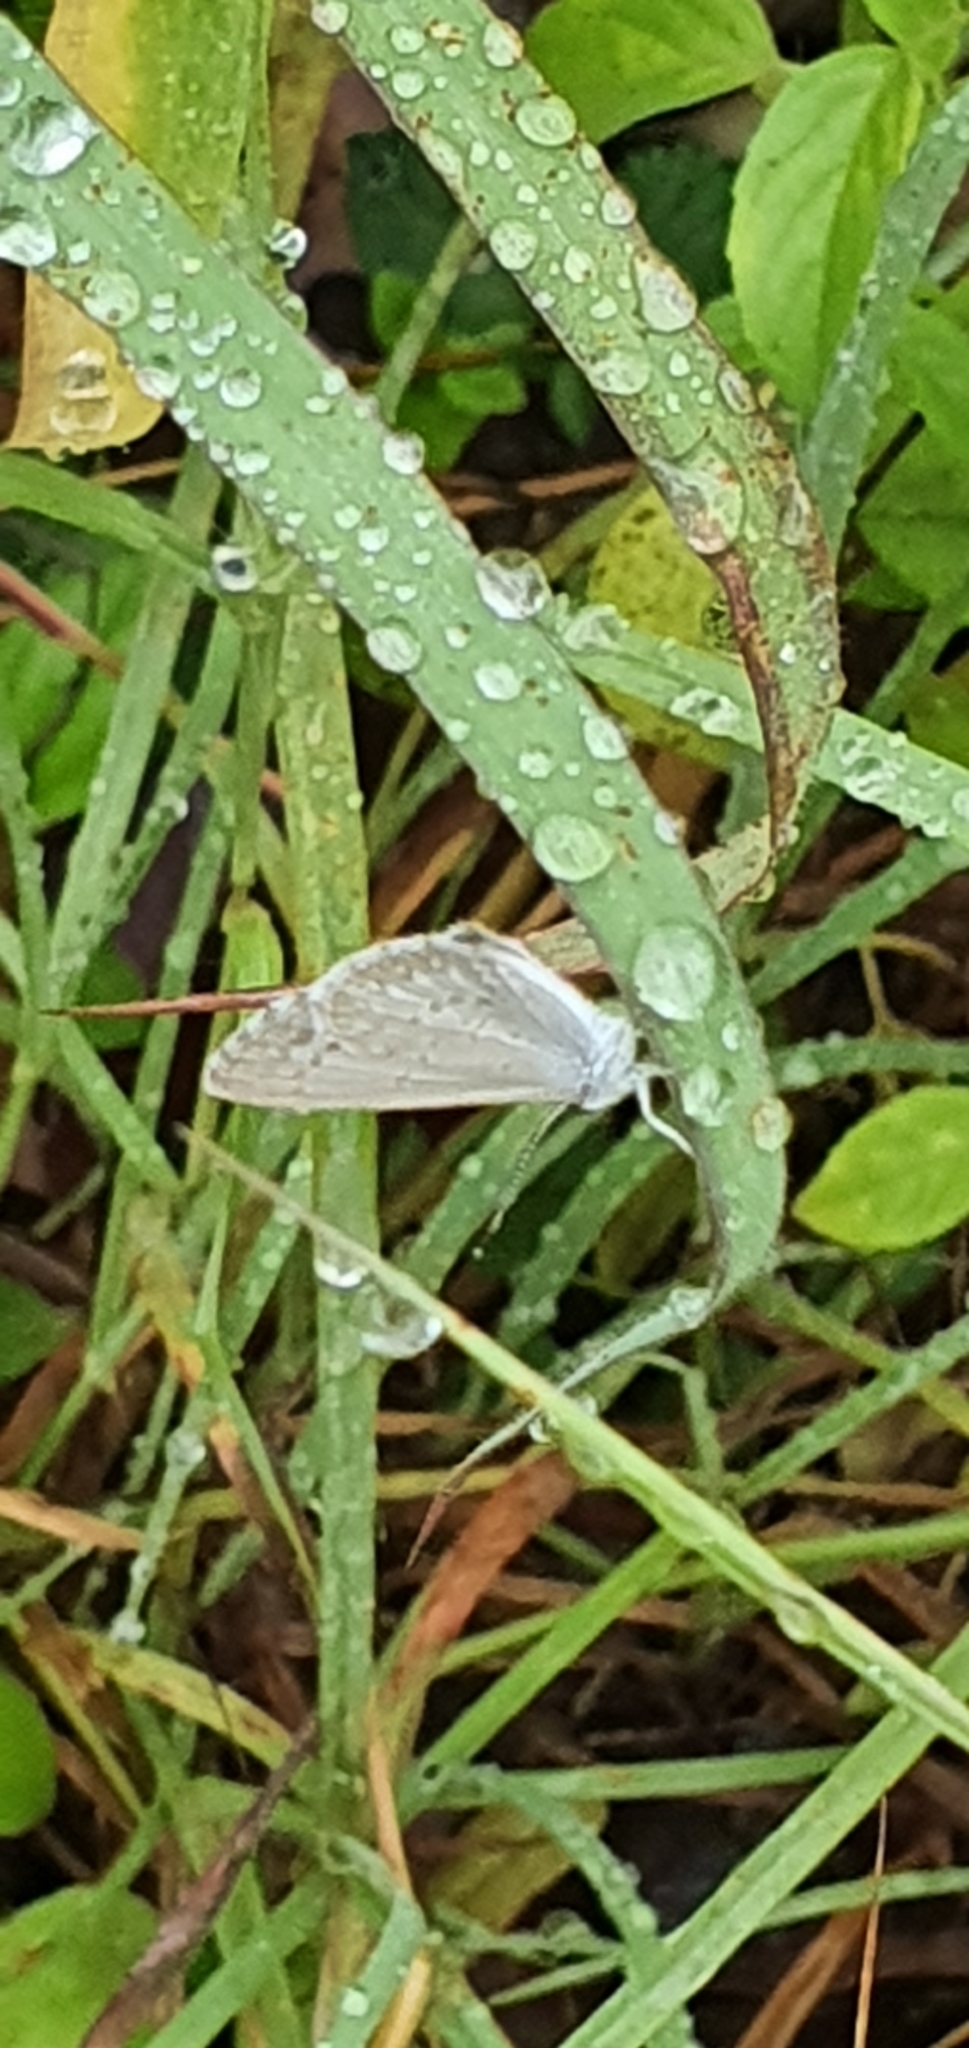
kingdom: Animalia
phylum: Arthropoda
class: Insecta
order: Lepidoptera
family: Lycaenidae
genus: Zizina
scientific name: Zizina labradus
